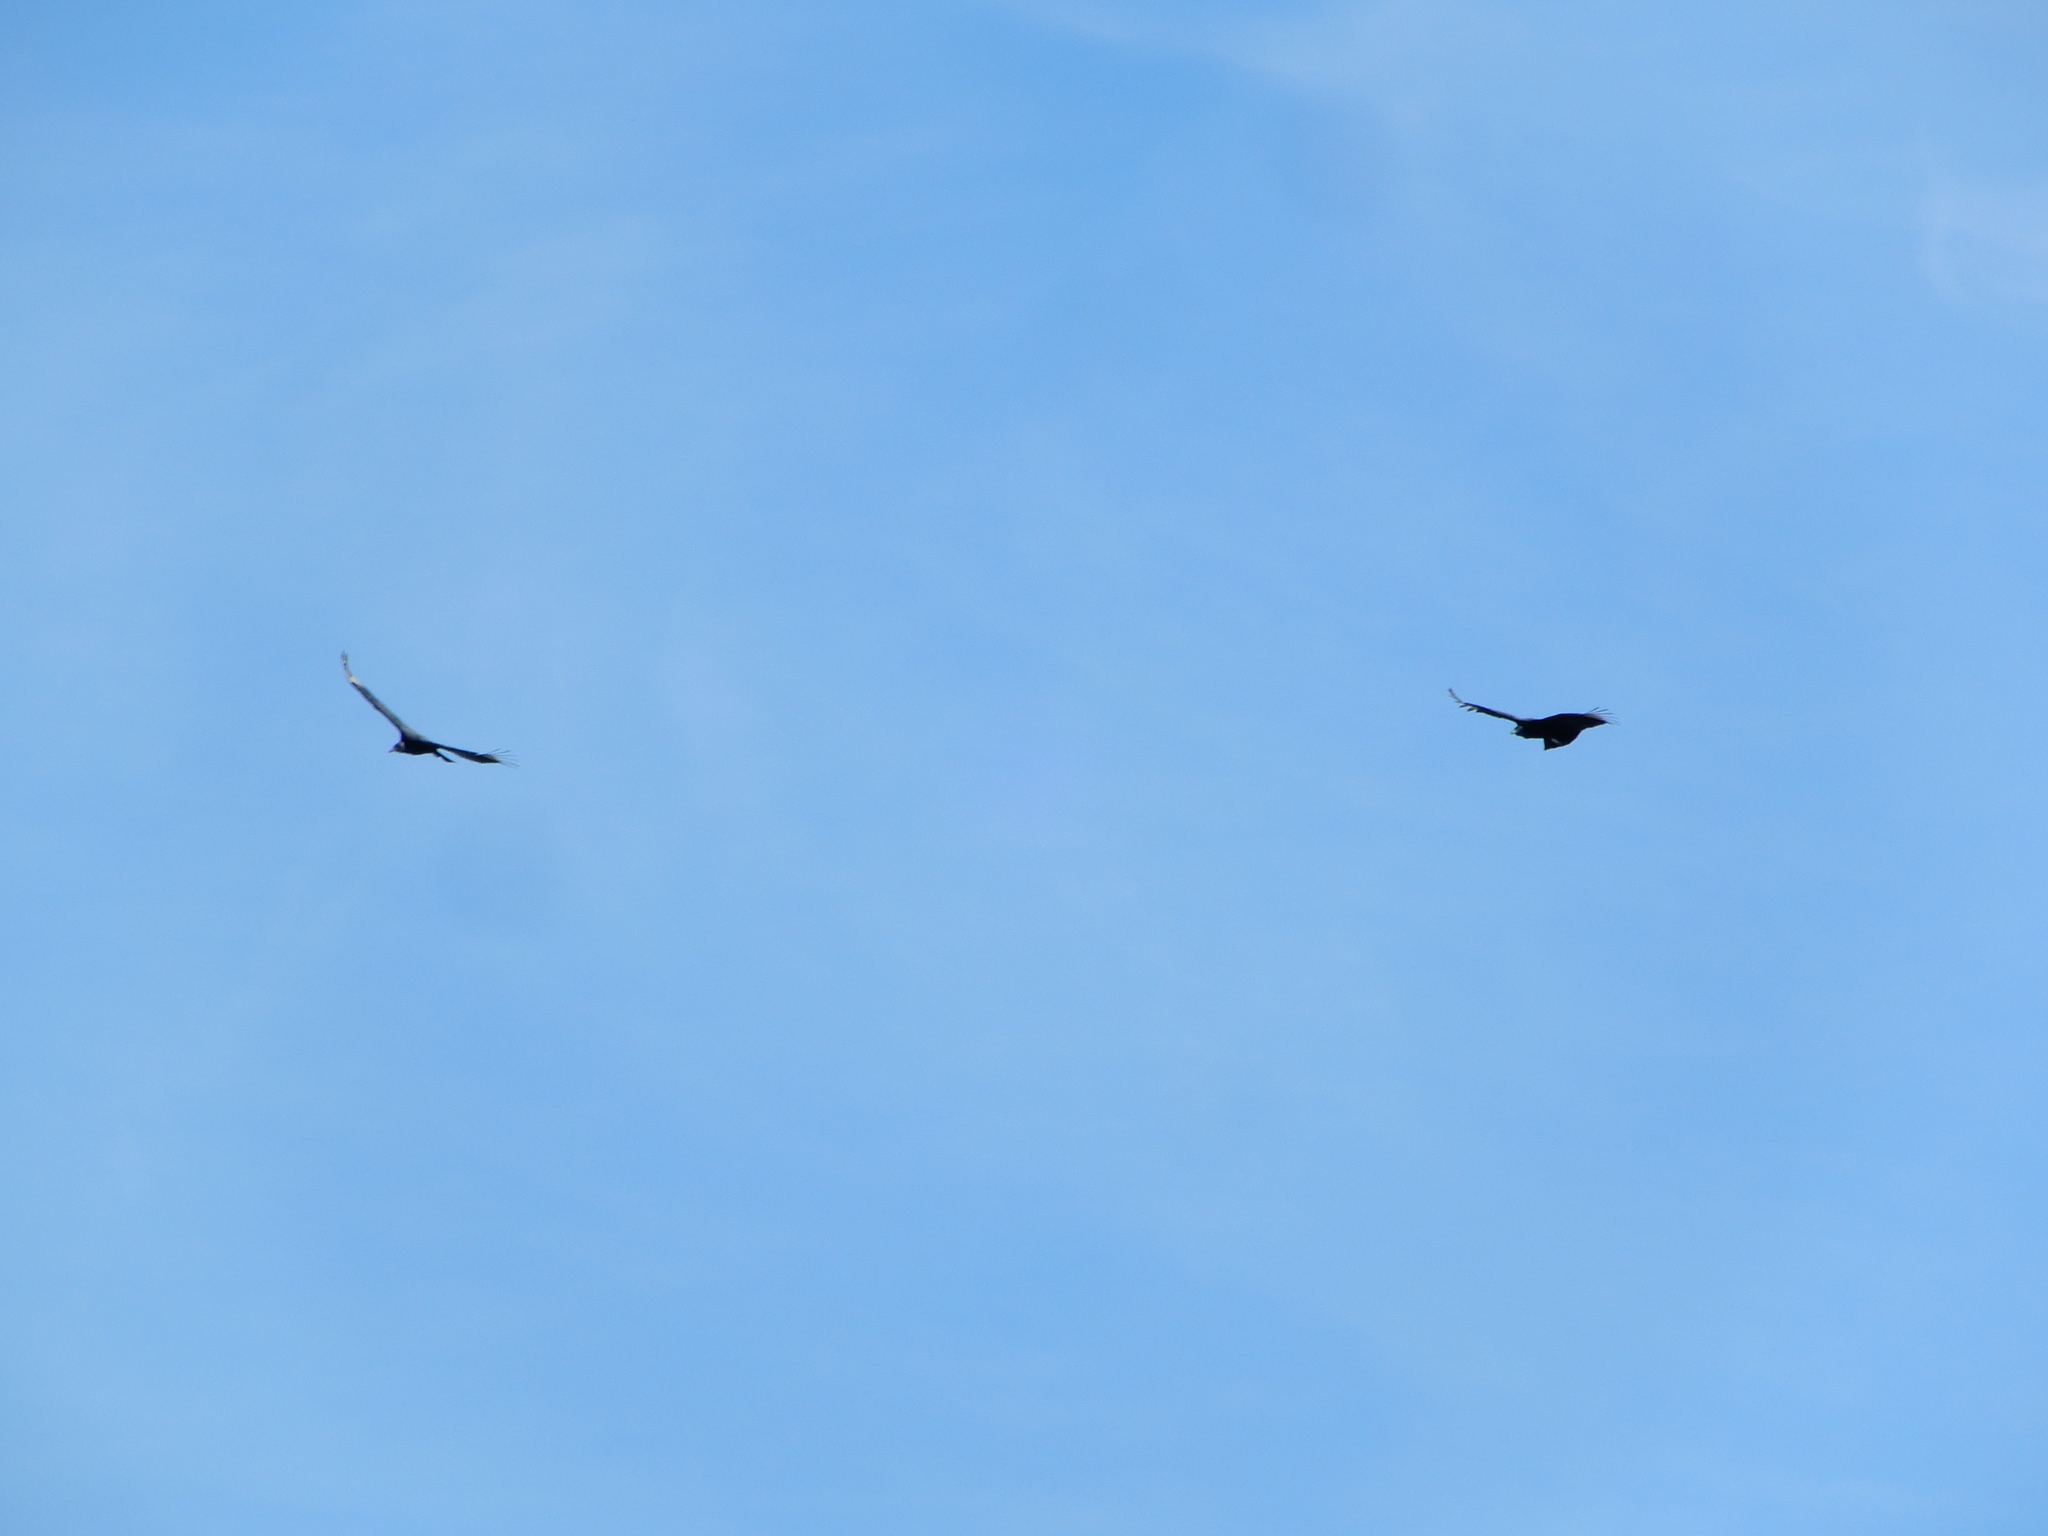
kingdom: Animalia
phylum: Chordata
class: Aves
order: Accipitriformes
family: Cathartidae
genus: Coragyps
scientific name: Coragyps atratus
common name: Black vulture
